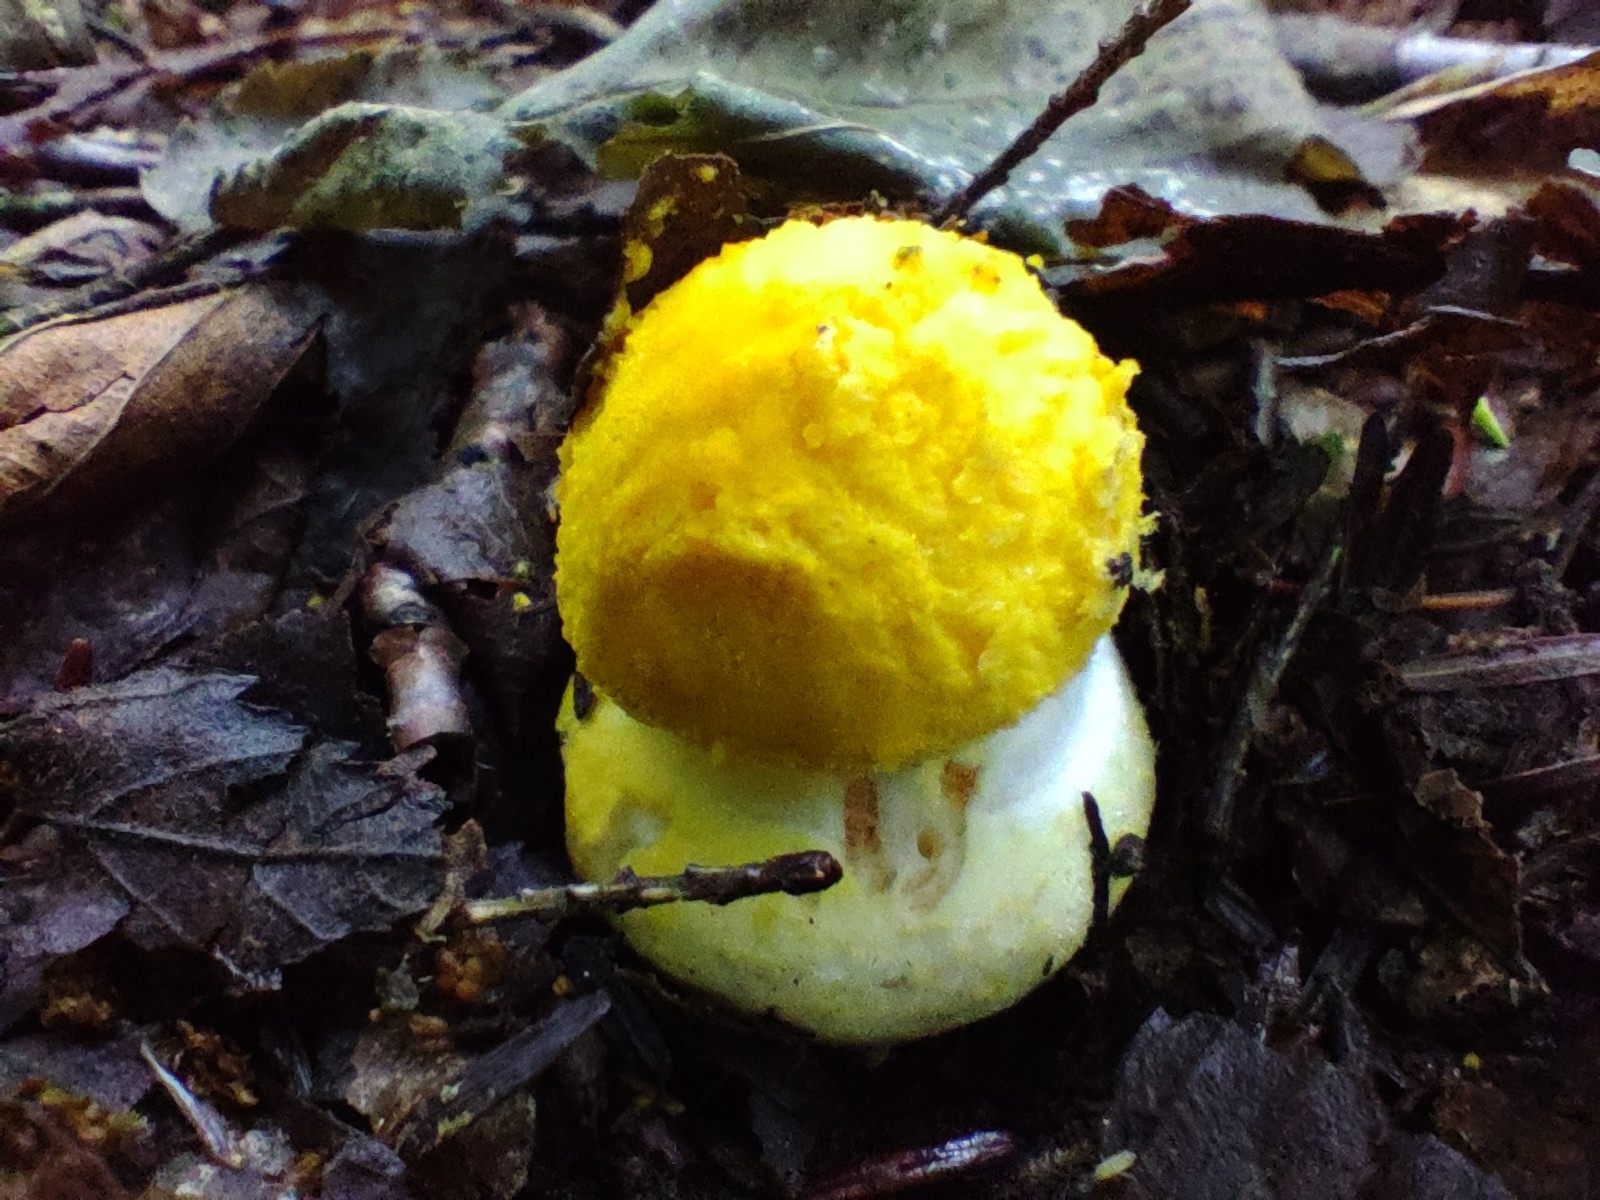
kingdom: Fungi
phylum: Basidiomycota
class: Agaricomycetes
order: Agaricales
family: Amanitaceae
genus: Amanita
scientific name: Amanita flavoconia
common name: Yellow patches
